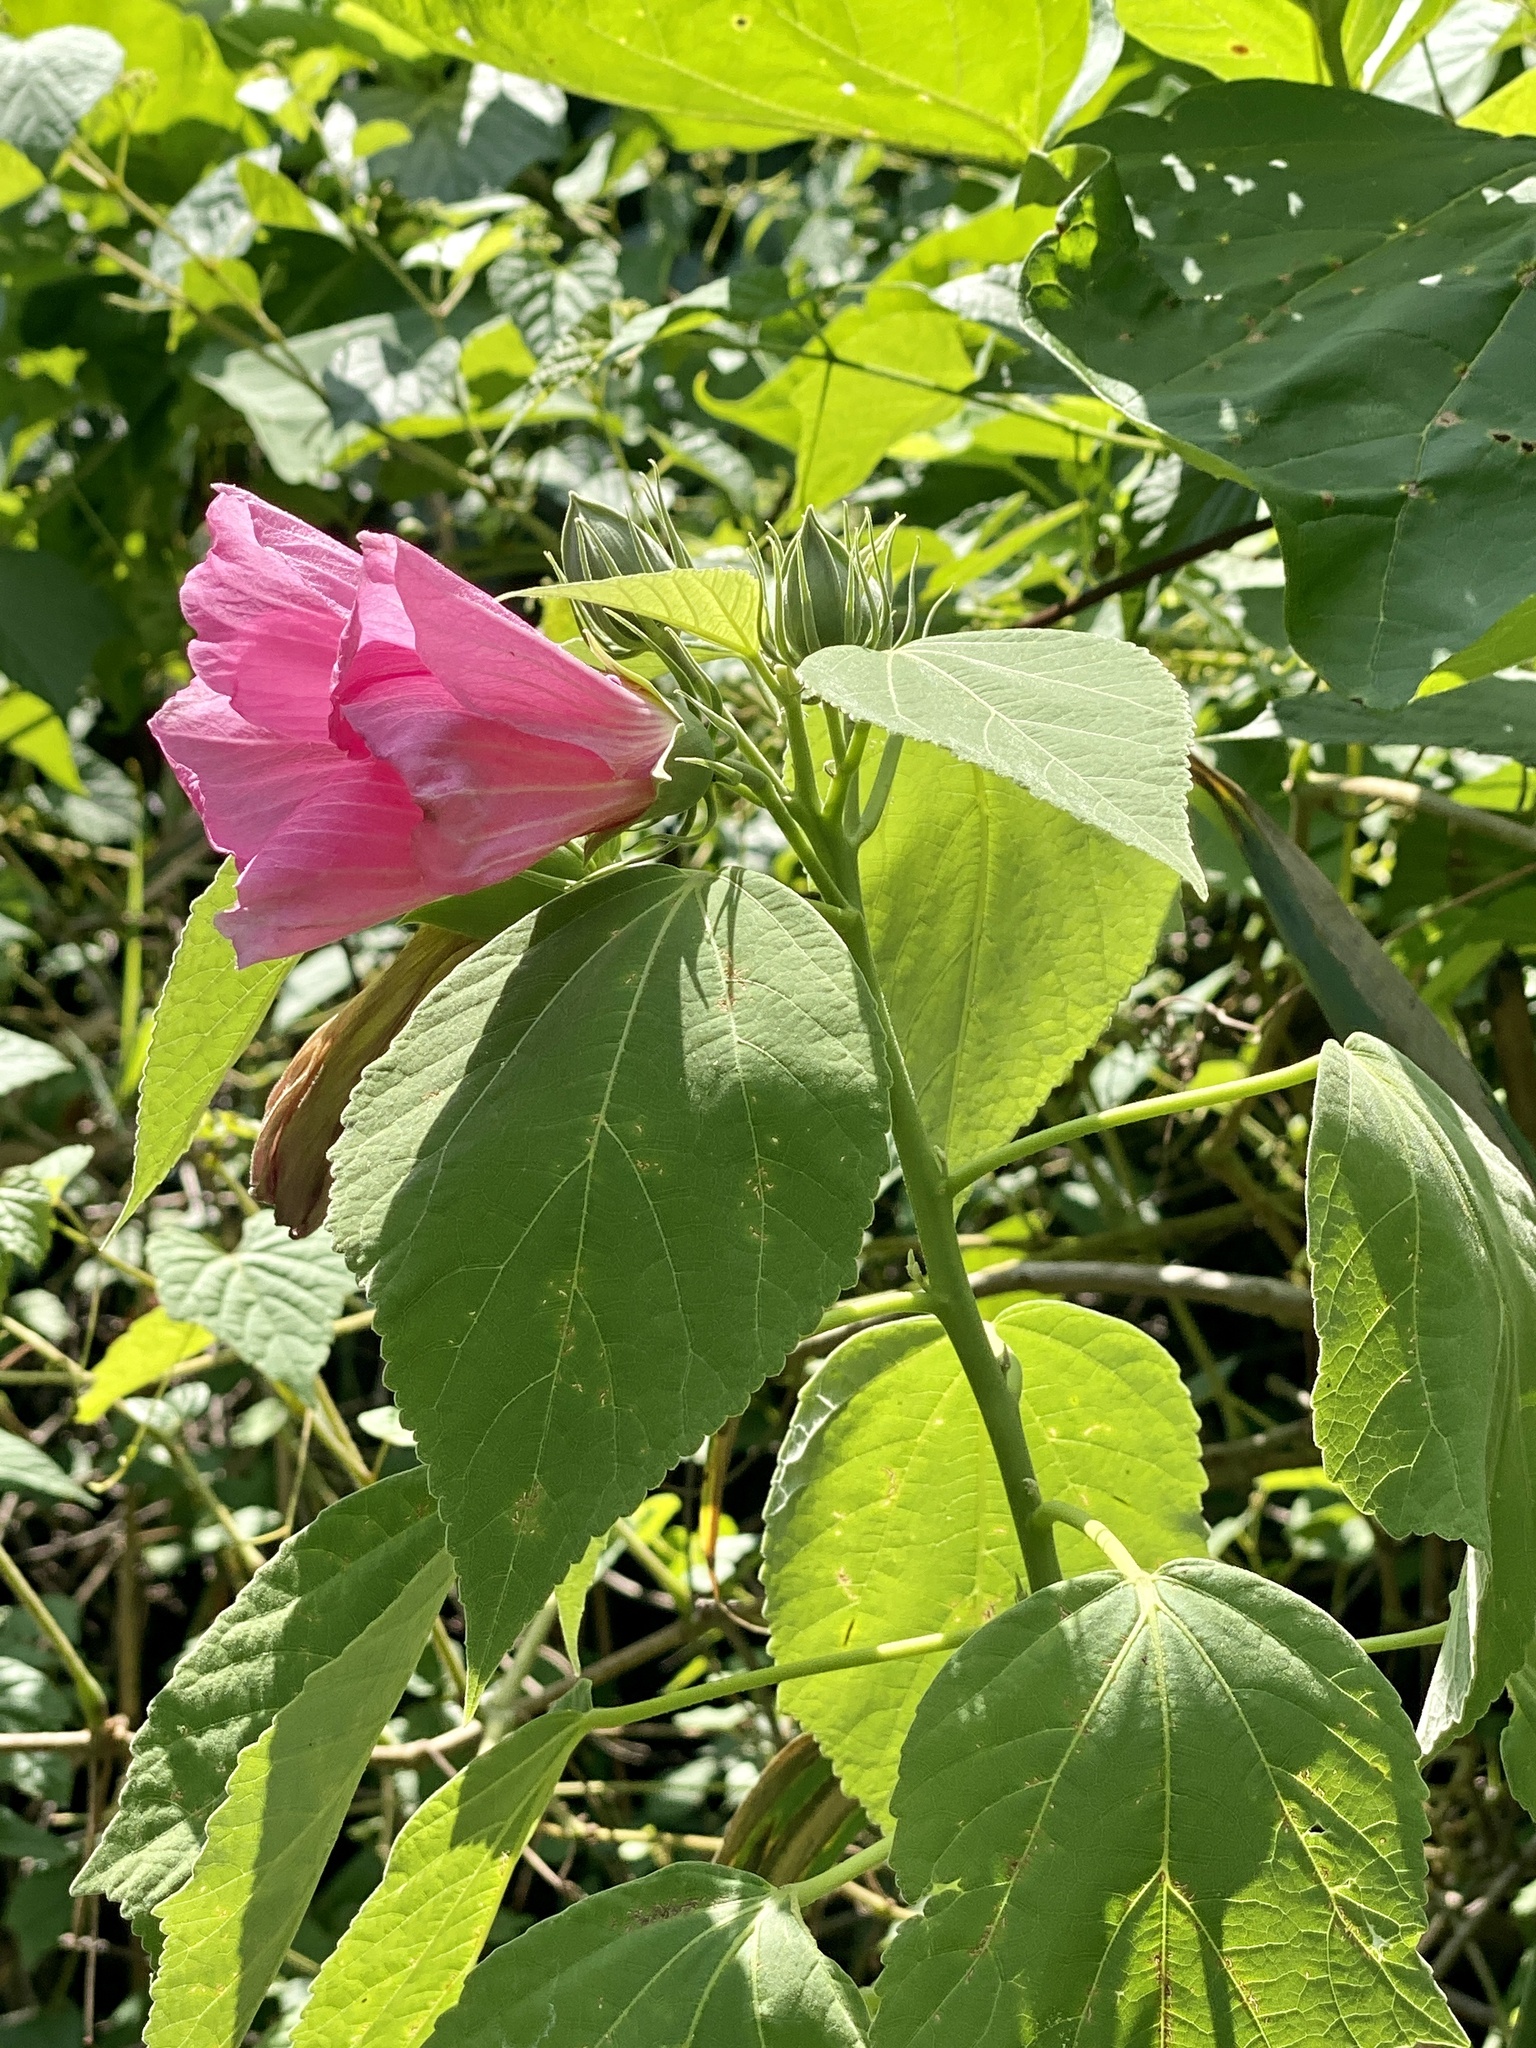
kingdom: Plantae
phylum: Tracheophyta
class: Magnoliopsida
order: Malvales
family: Malvaceae
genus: Hibiscus
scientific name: Hibiscus moscheutos
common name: Common rose-mallow
